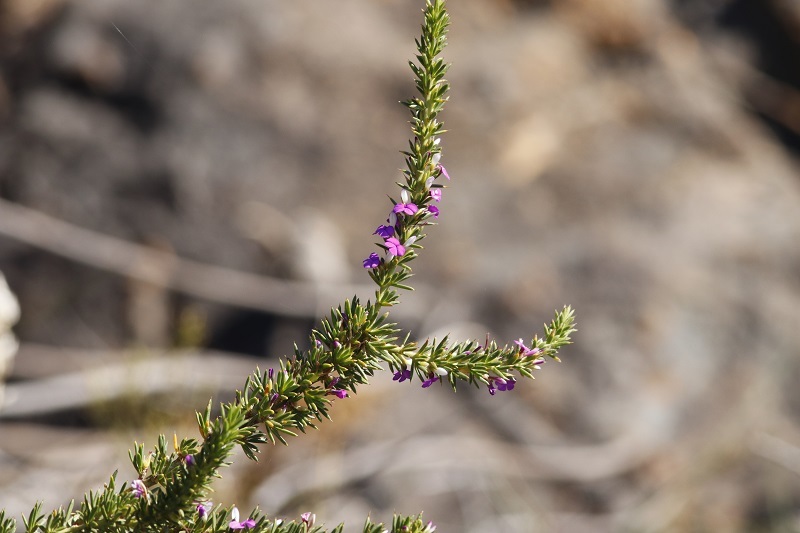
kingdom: Plantae
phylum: Tracheophyta
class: Magnoliopsida
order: Fabales
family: Polygalaceae
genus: Muraltia
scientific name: Muraltia heisteria
